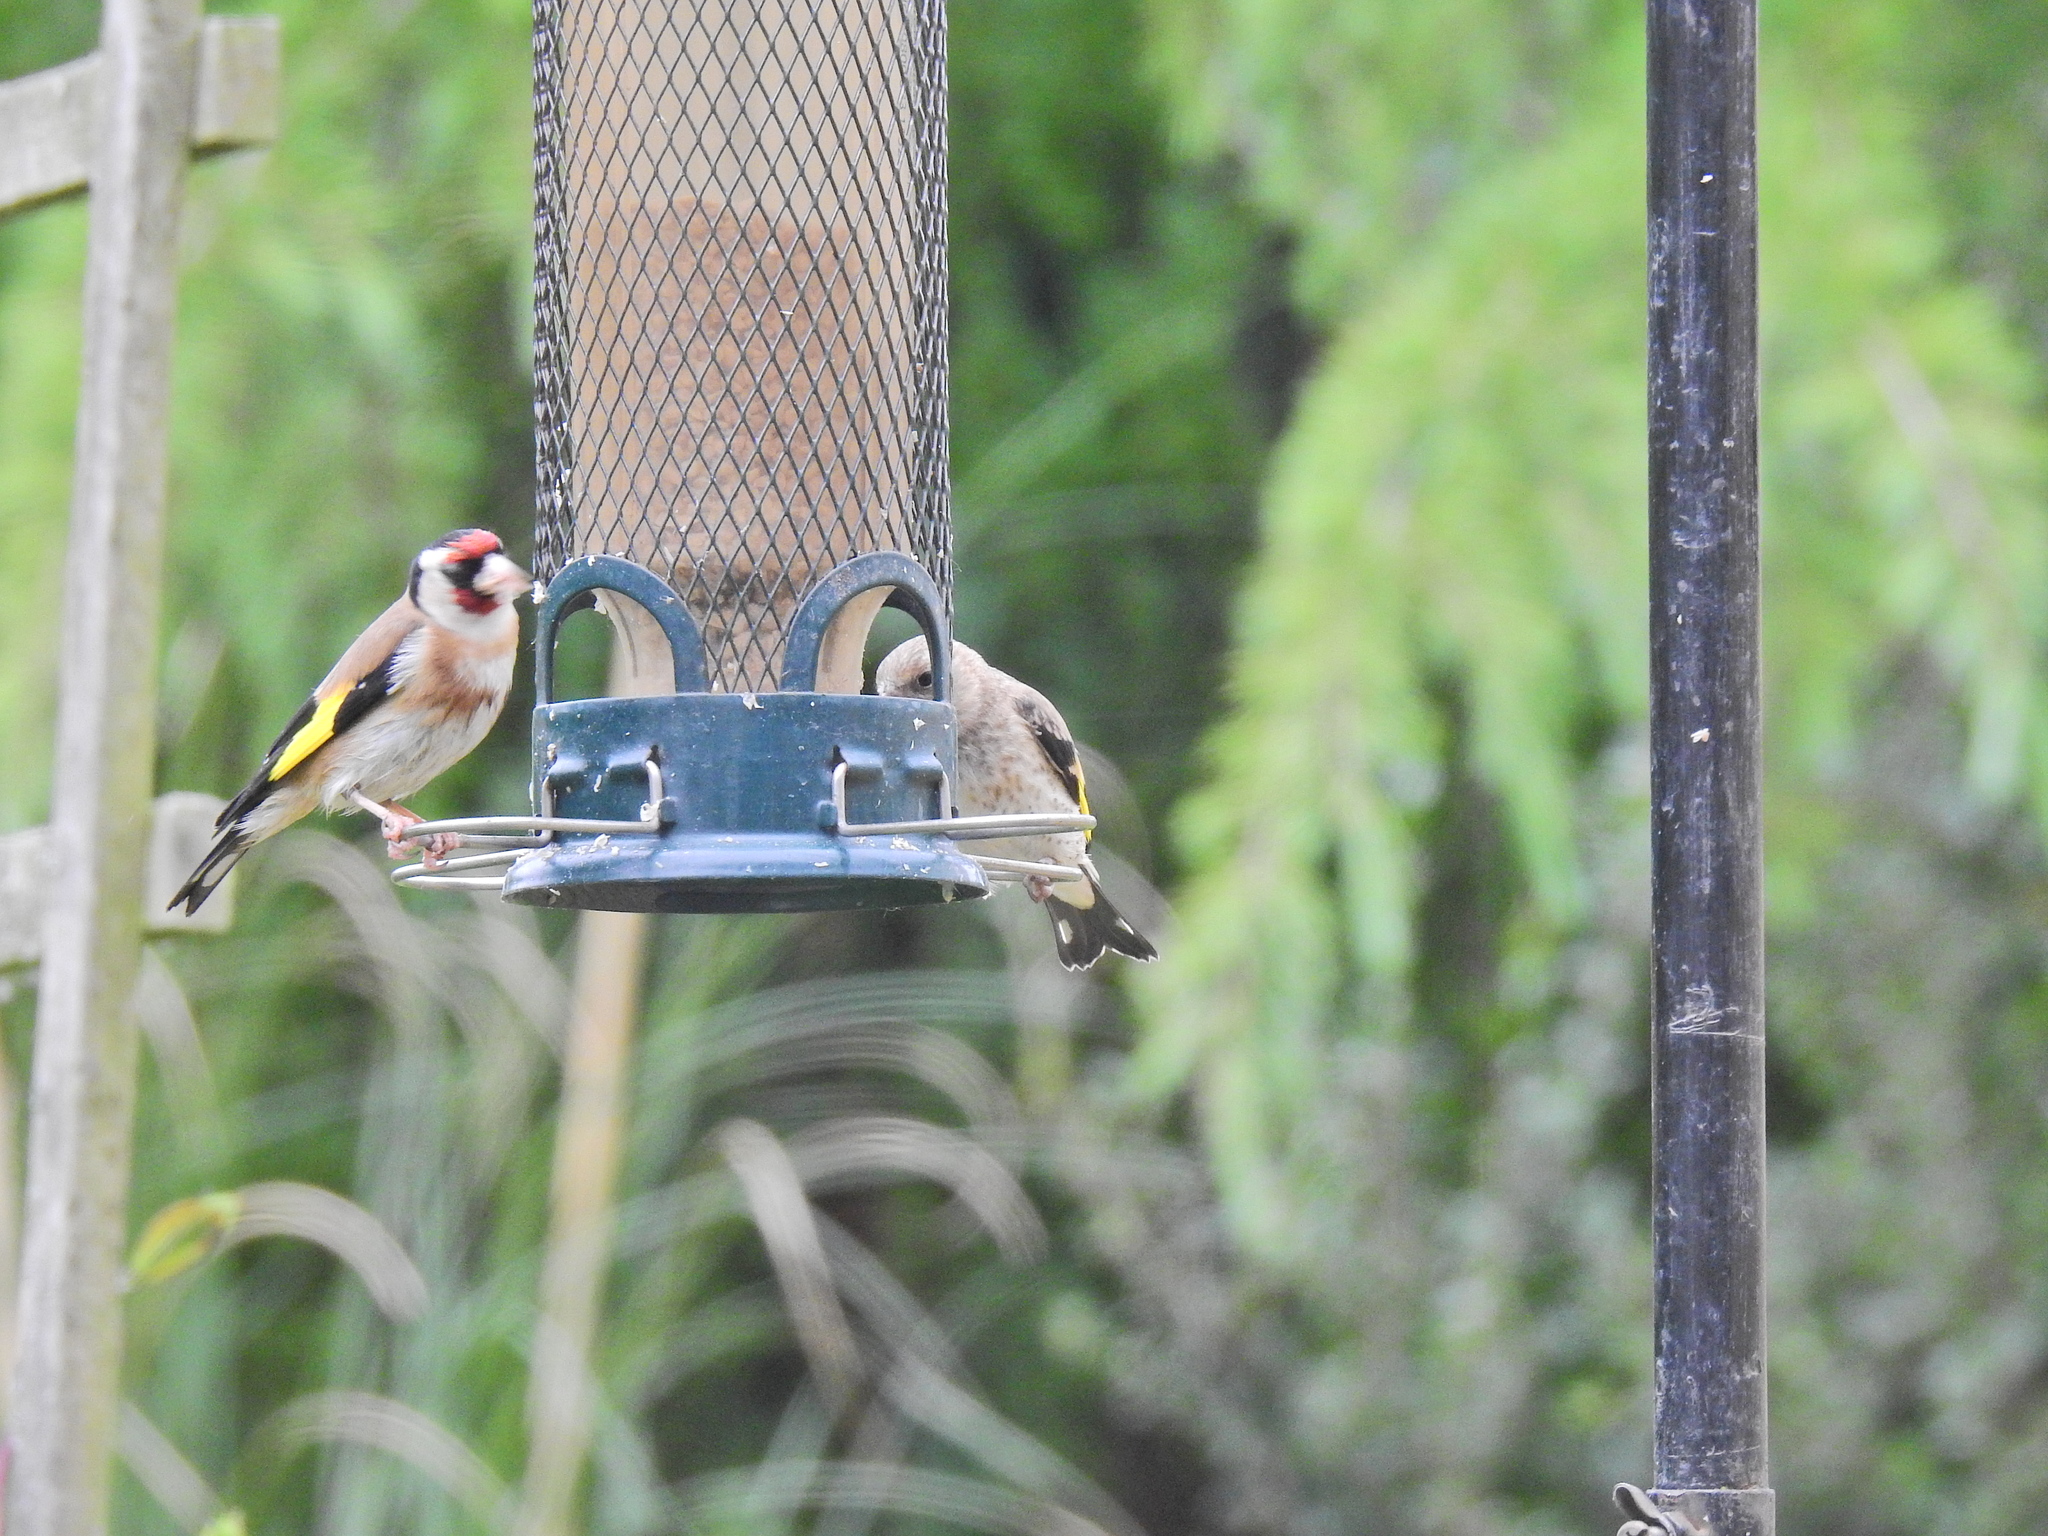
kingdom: Animalia
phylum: Chordata
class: Aves
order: Passeriformes
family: Fringillidae
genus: Carduelis
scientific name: Carduelis carduelis
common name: European goldfinch
